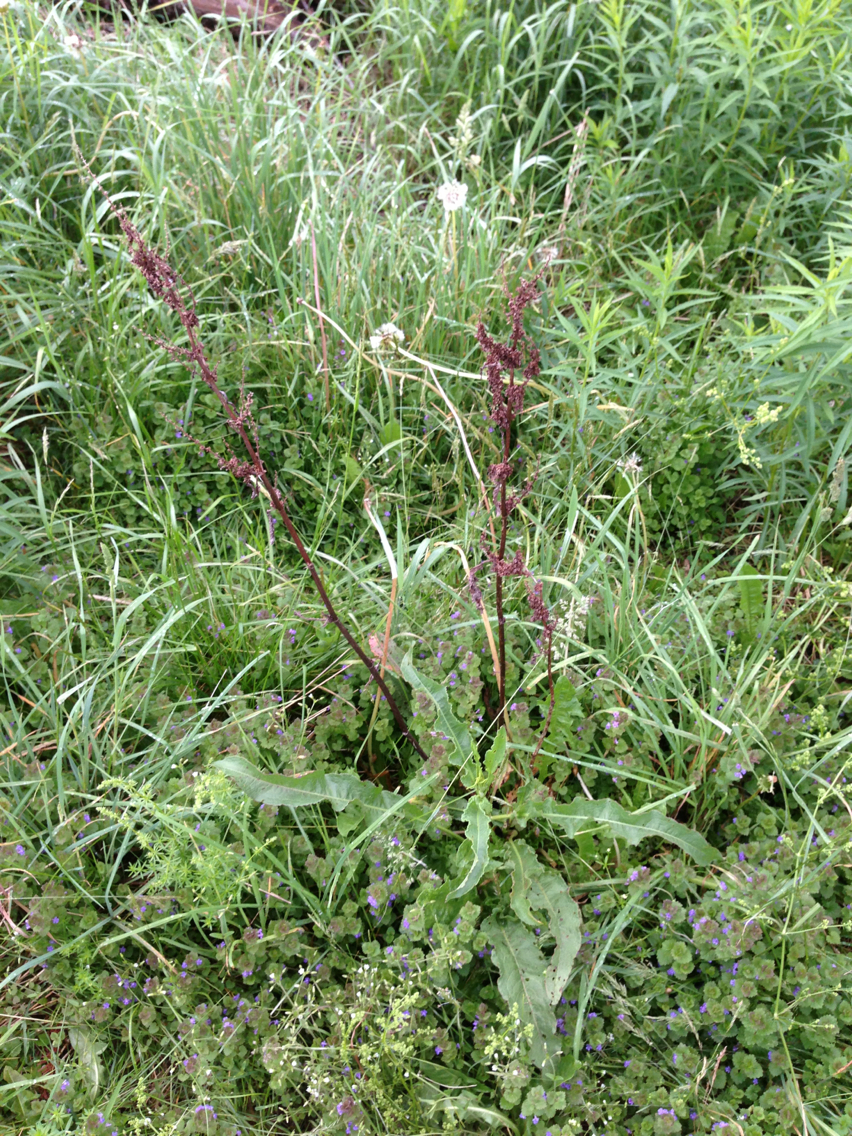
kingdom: Plantae
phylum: Tracheophyta
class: Magnoliopsida
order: Caryophyllales
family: Polygonaceae
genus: Rumex
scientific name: Rumex crispus
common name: Curled dock
